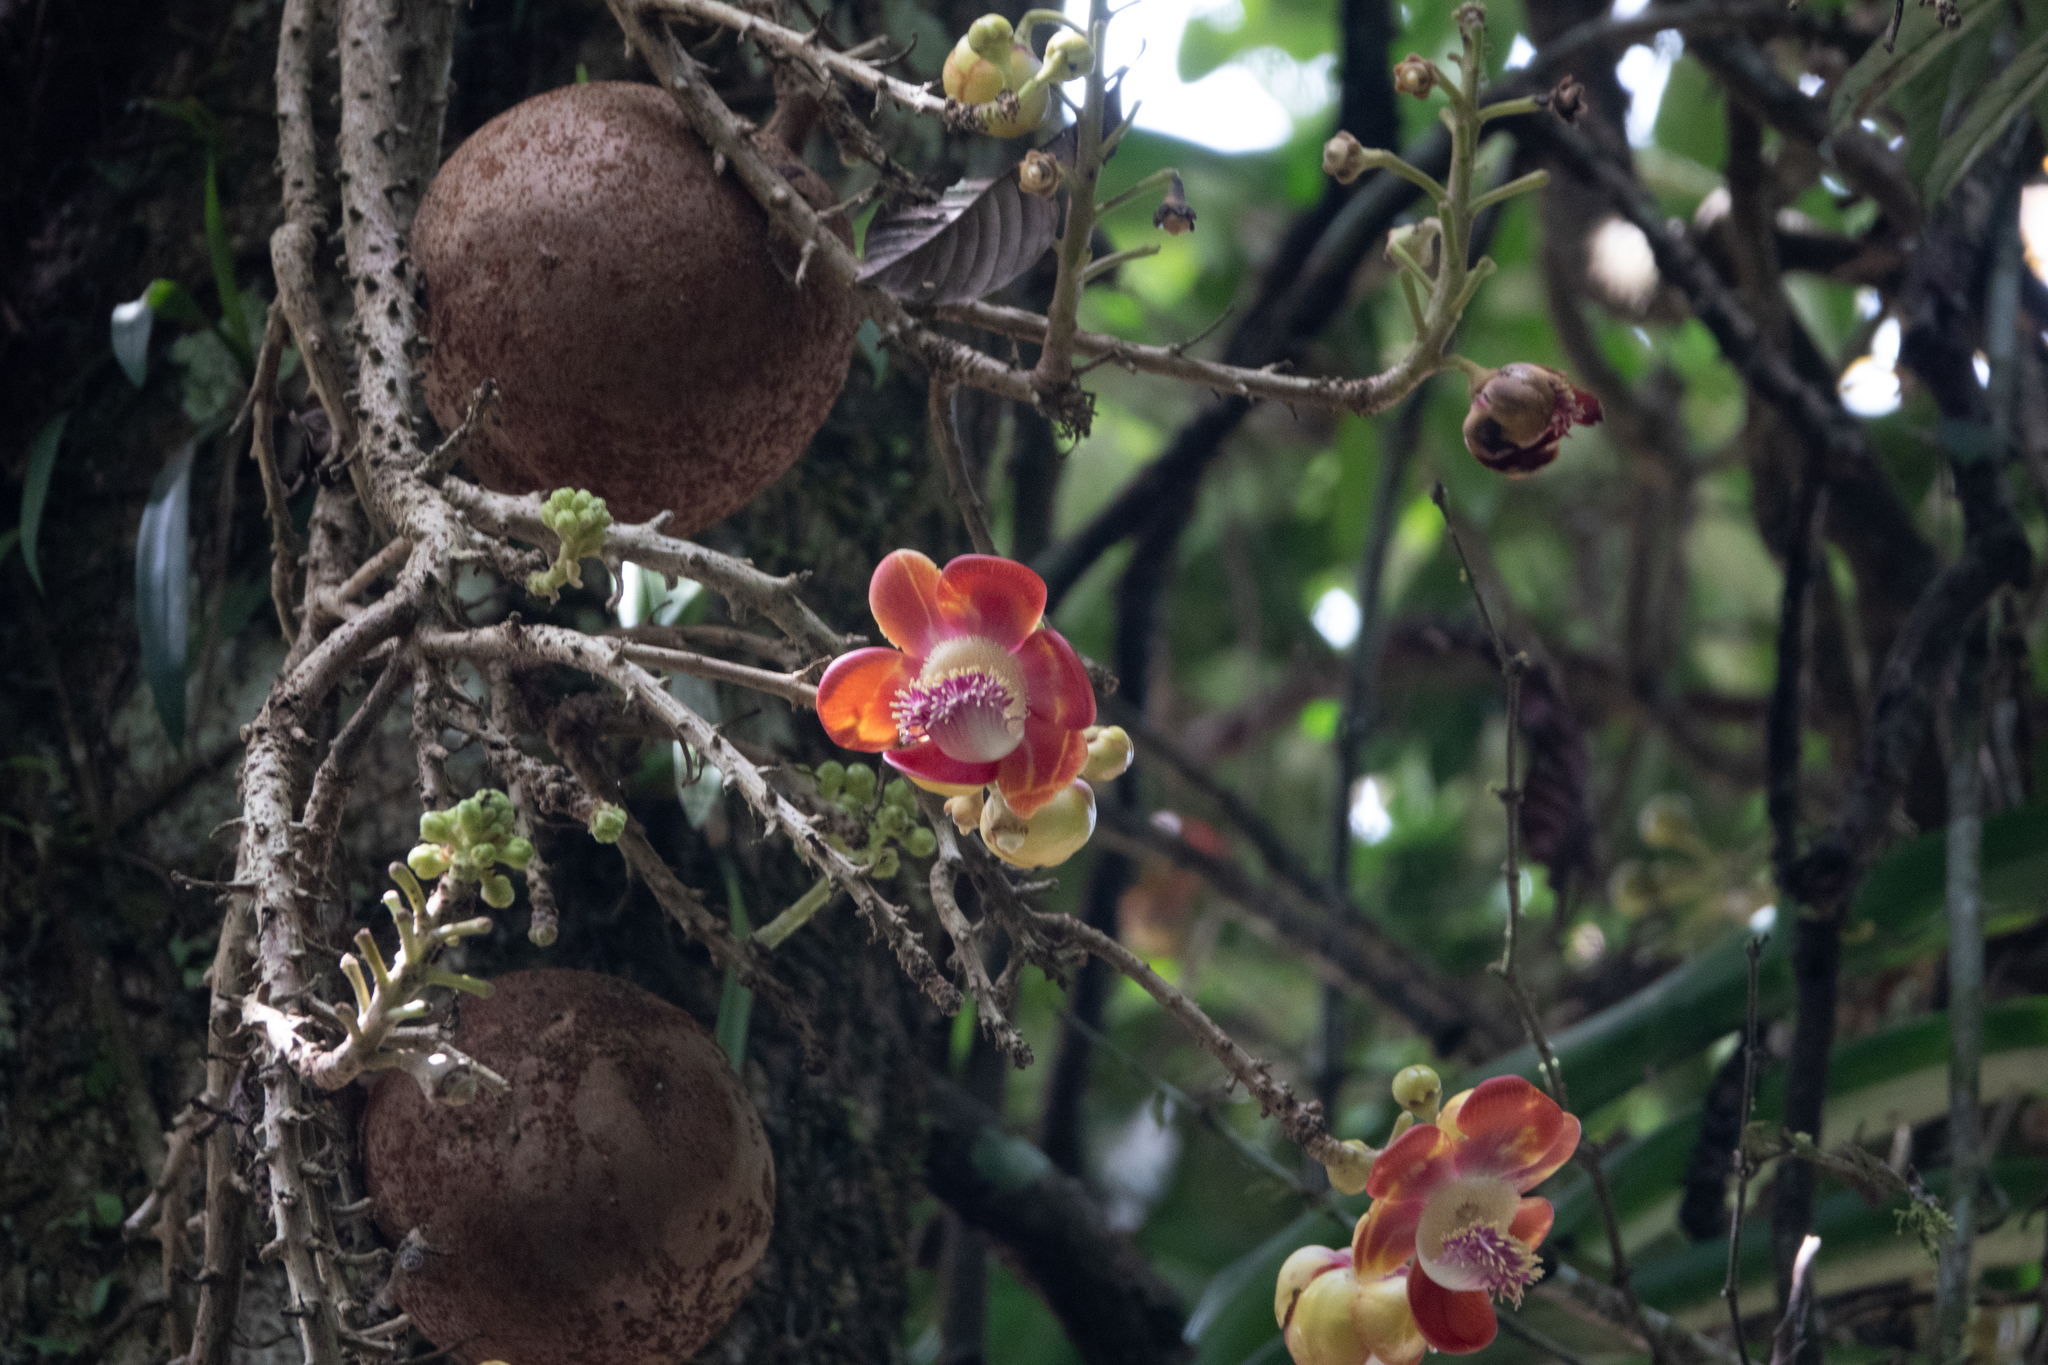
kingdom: Plantae
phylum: Tracheophyta
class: Magnoliopsida
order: Ericales
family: Lecythidaceae
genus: Couroupita
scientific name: Couroupita guianensis
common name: Cannonball tree
